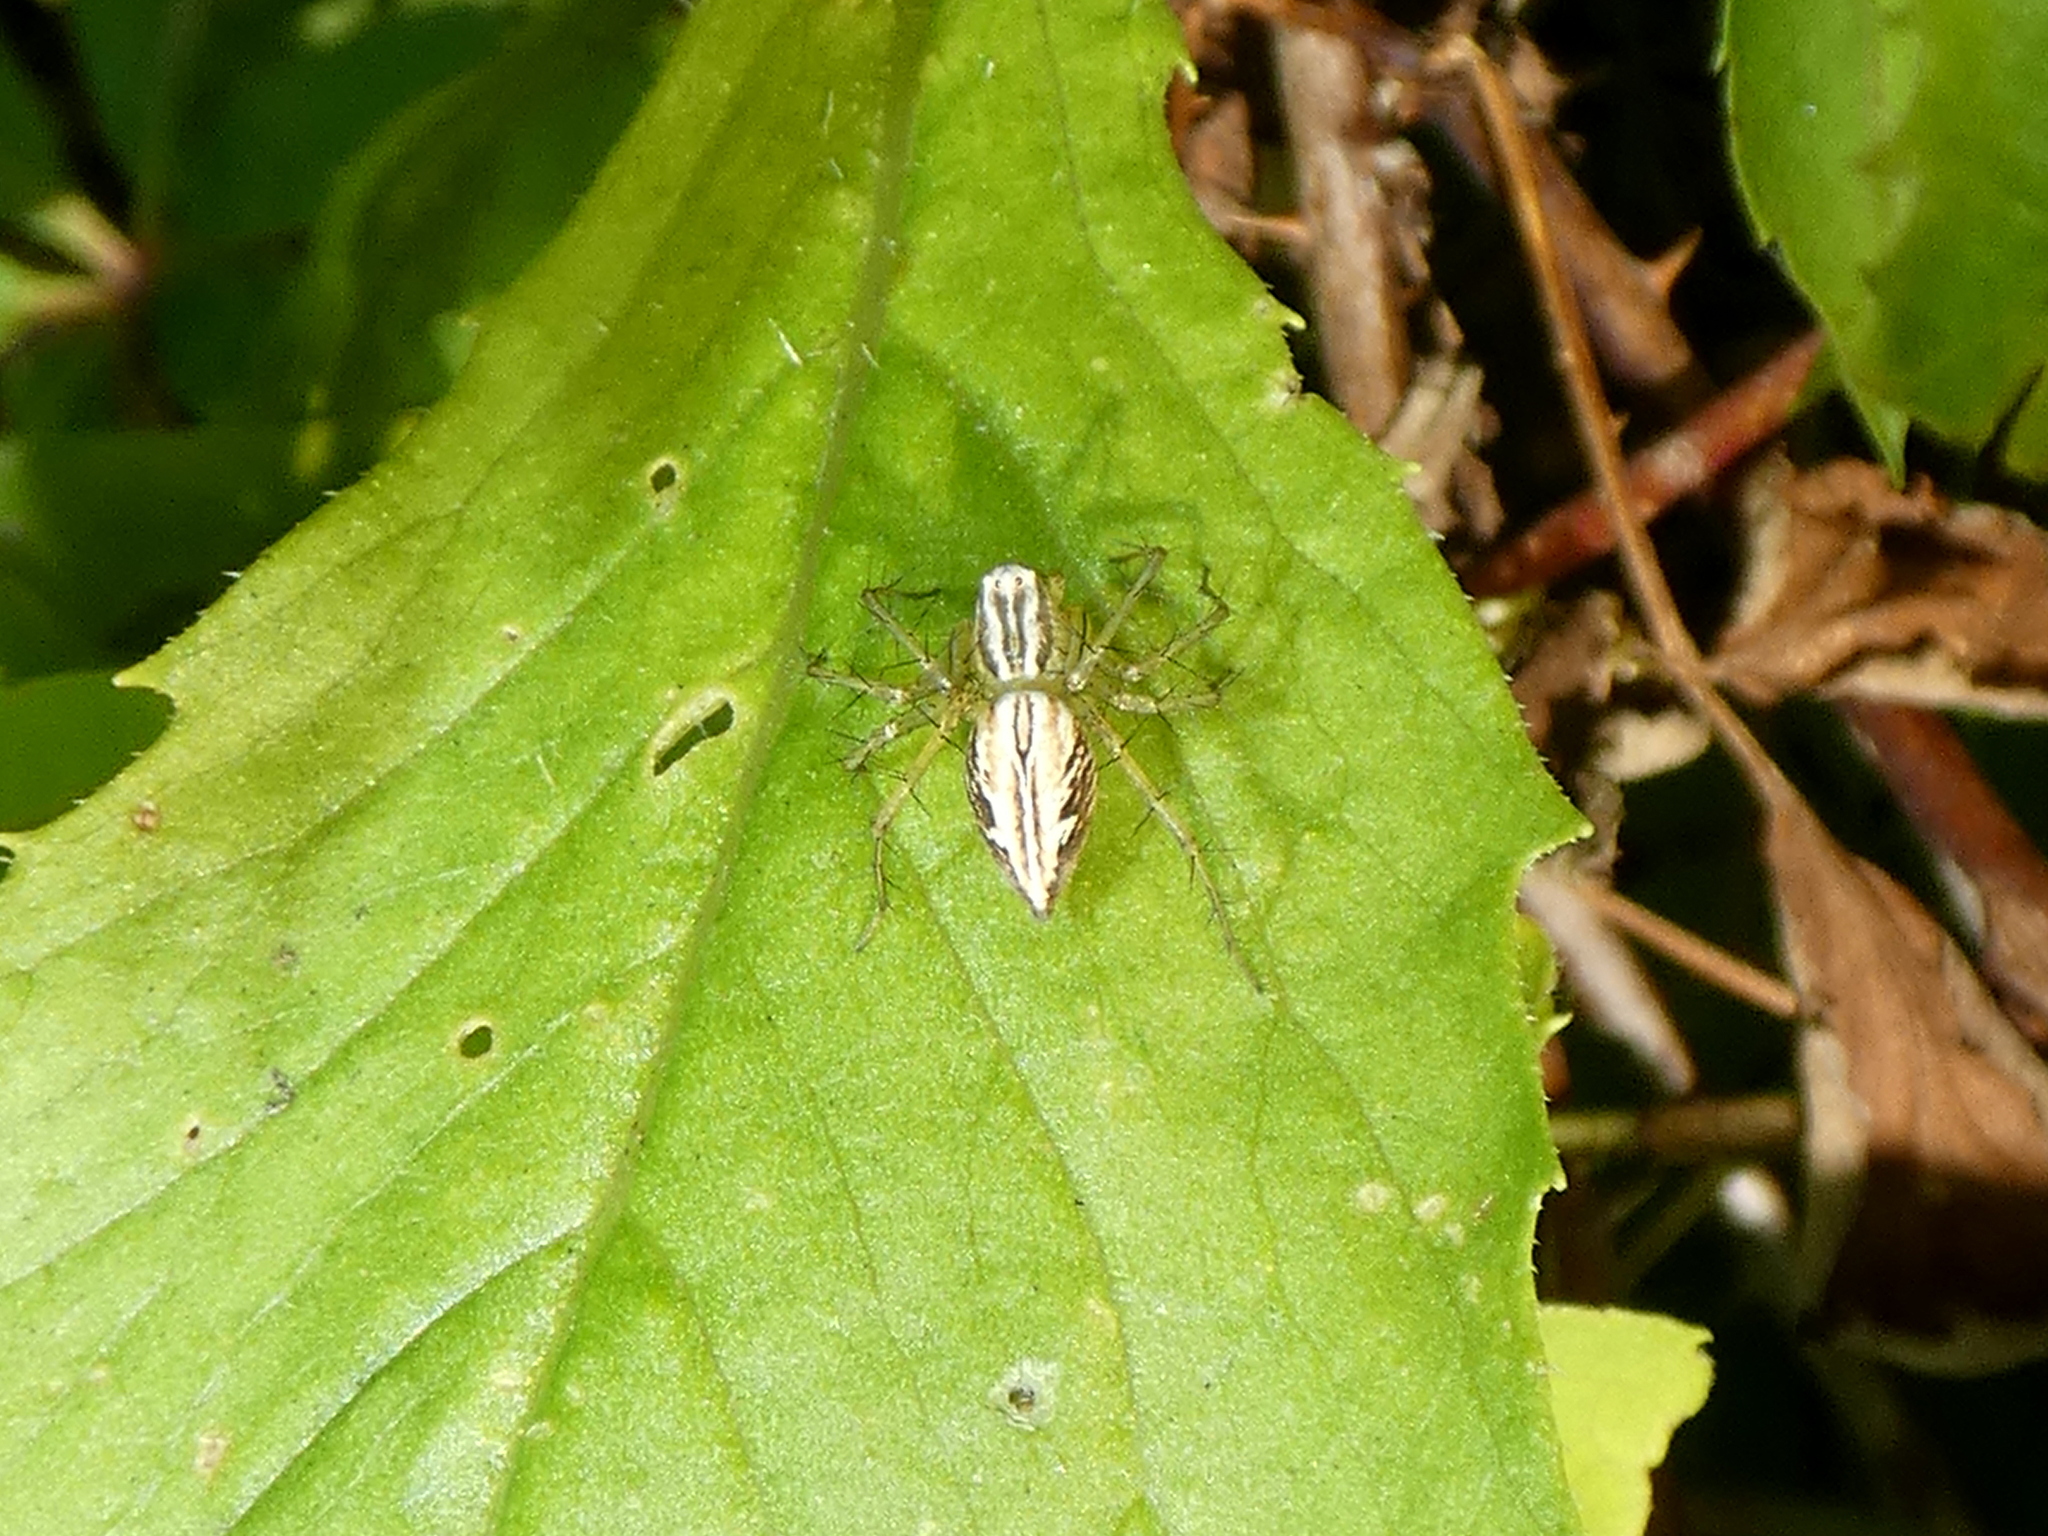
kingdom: Animalia
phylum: Arthropoda
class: Arachnida
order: Araneae
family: Oxyopidae
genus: Oxyopes
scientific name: Oxyopes salticus
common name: Lynx spiders
